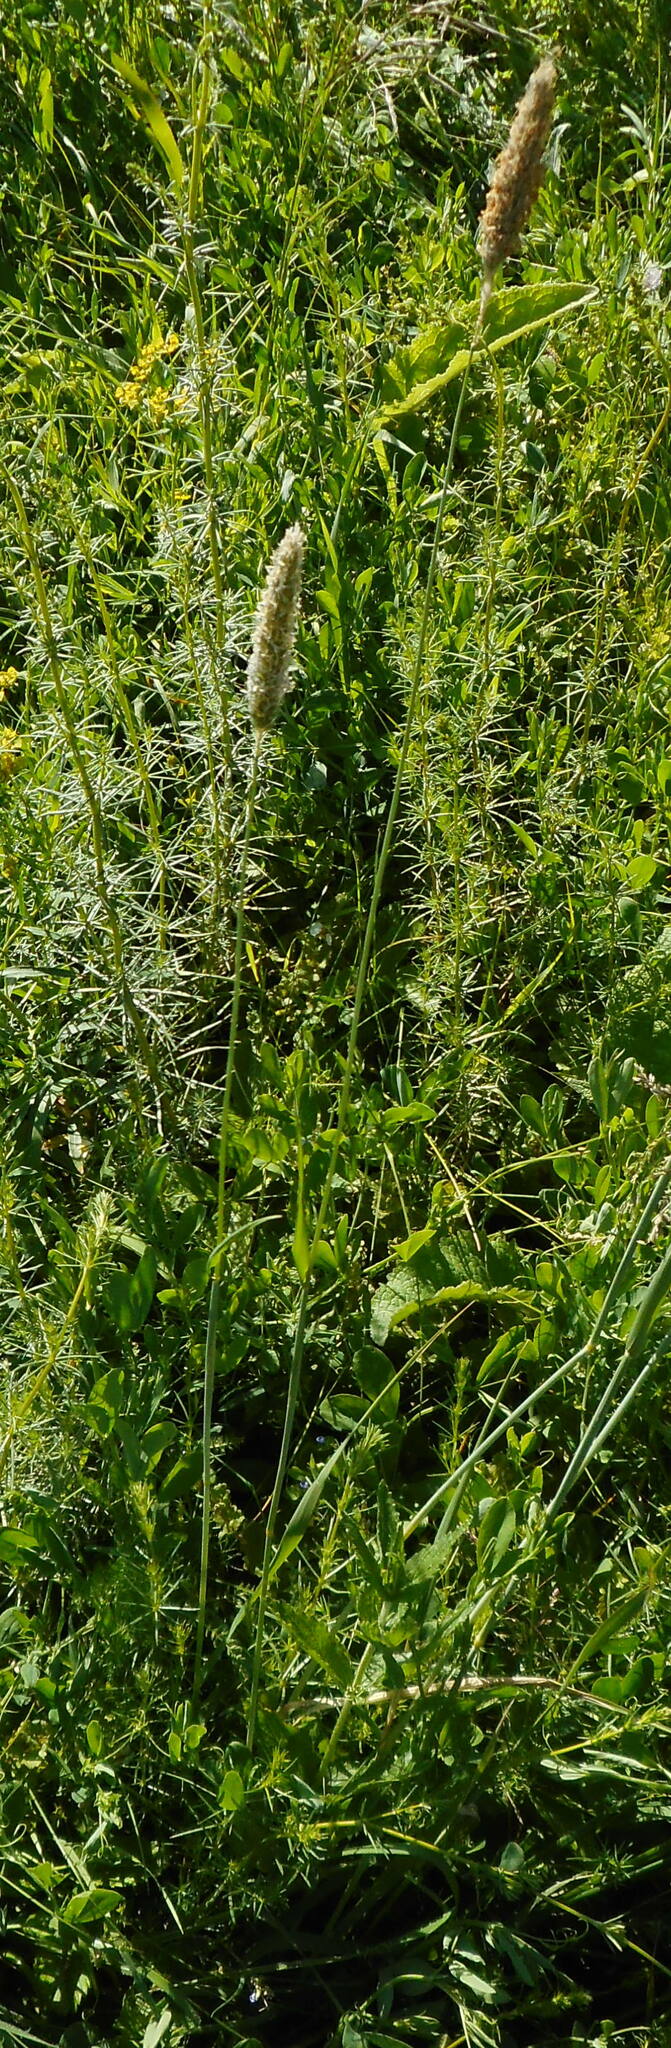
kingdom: Plantae
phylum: Tracheophyta
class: Liliopsida
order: Poales
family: Poaceae
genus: Alopecurus
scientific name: Alopecurus pratensis
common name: Meadow foxtail
